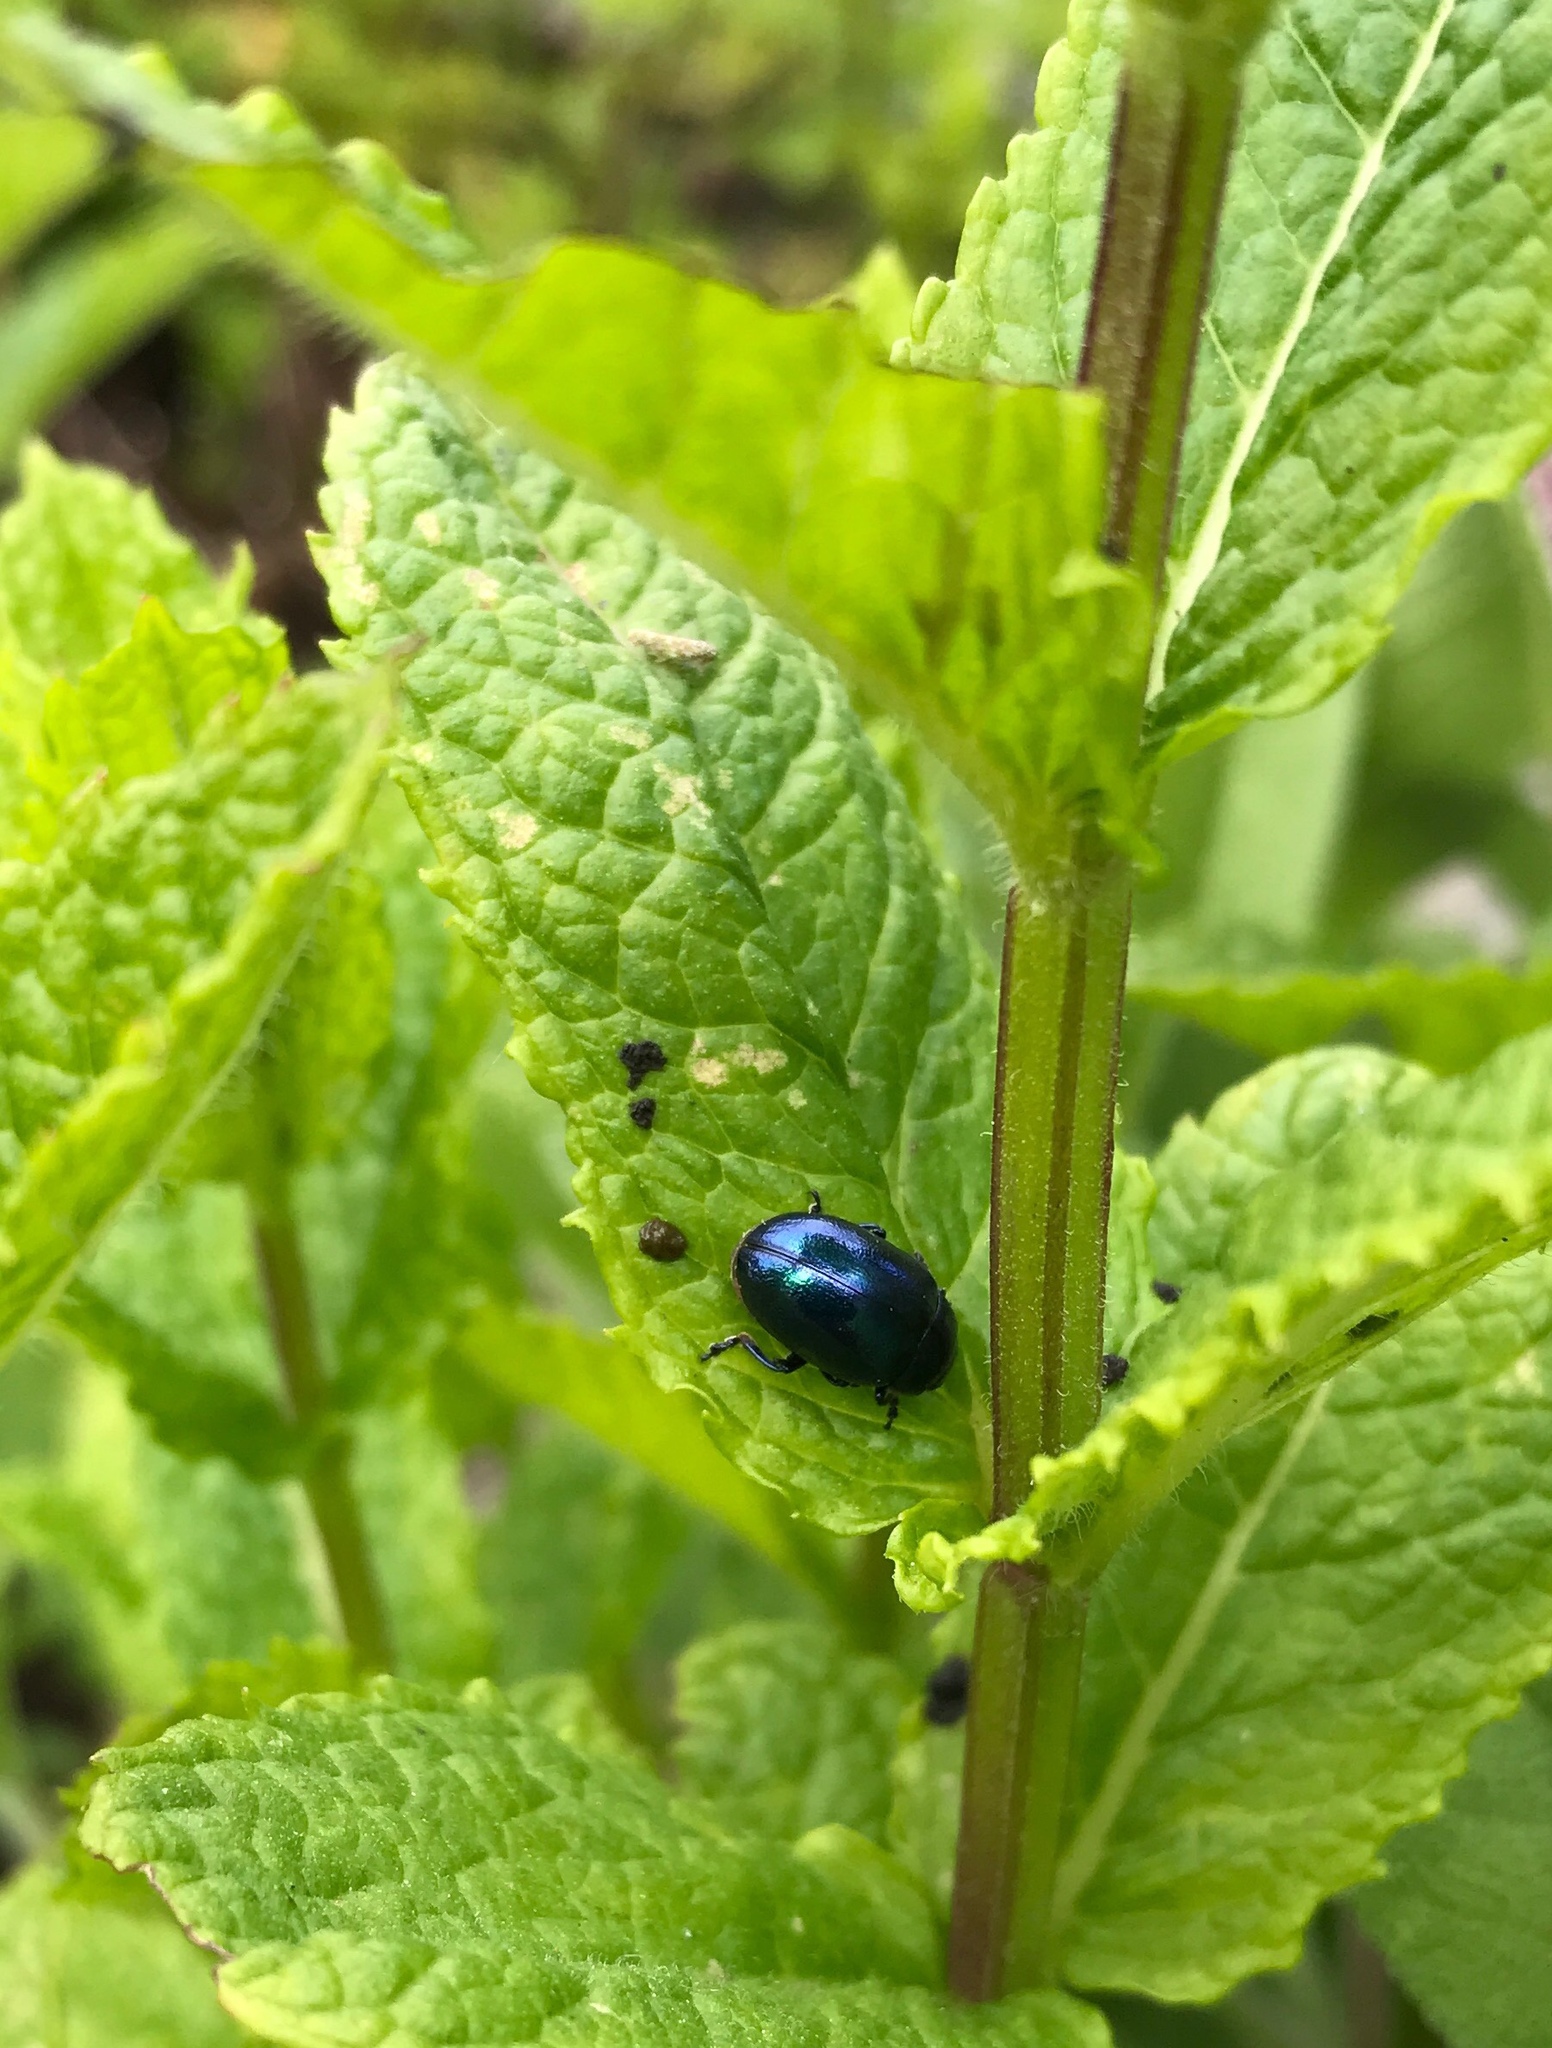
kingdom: Animalia
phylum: Arthropoda
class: Insecta
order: Coleoptera
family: Chrysomelidae
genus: Chrysolina
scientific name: Chrysolina coerulans
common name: Blue mint beetle
